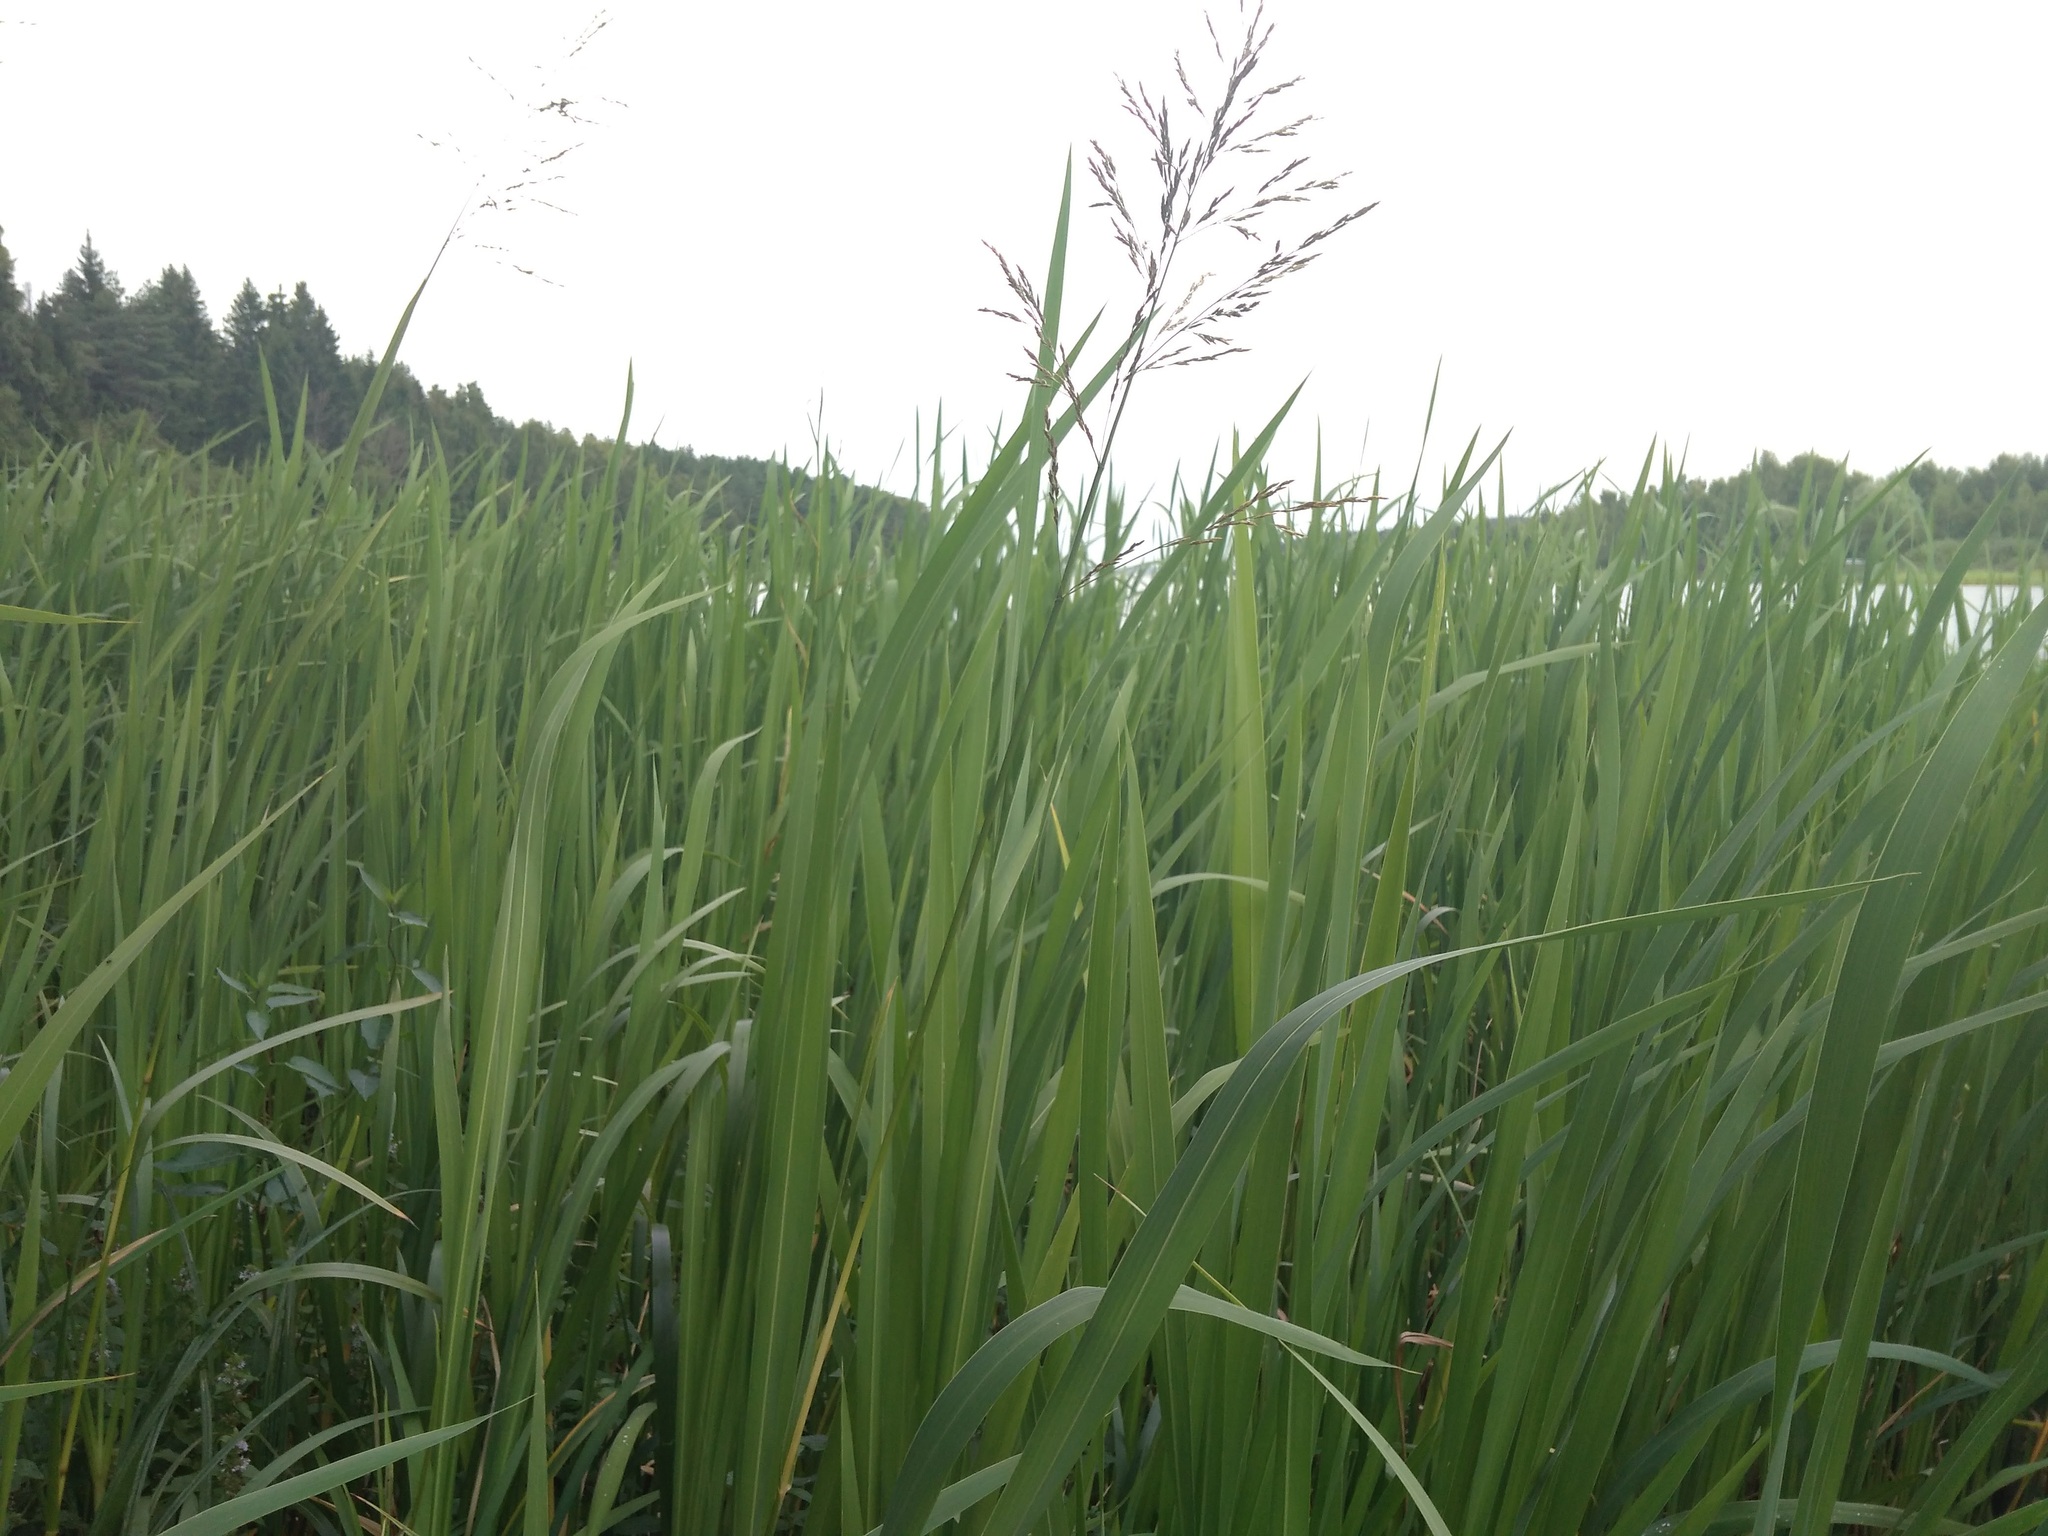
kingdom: Plantae
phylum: Tracheophyta
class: Liliopsida
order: Poales
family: Poaceae
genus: Glyceria
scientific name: Glyceria maxima
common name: Reed mannagrass
